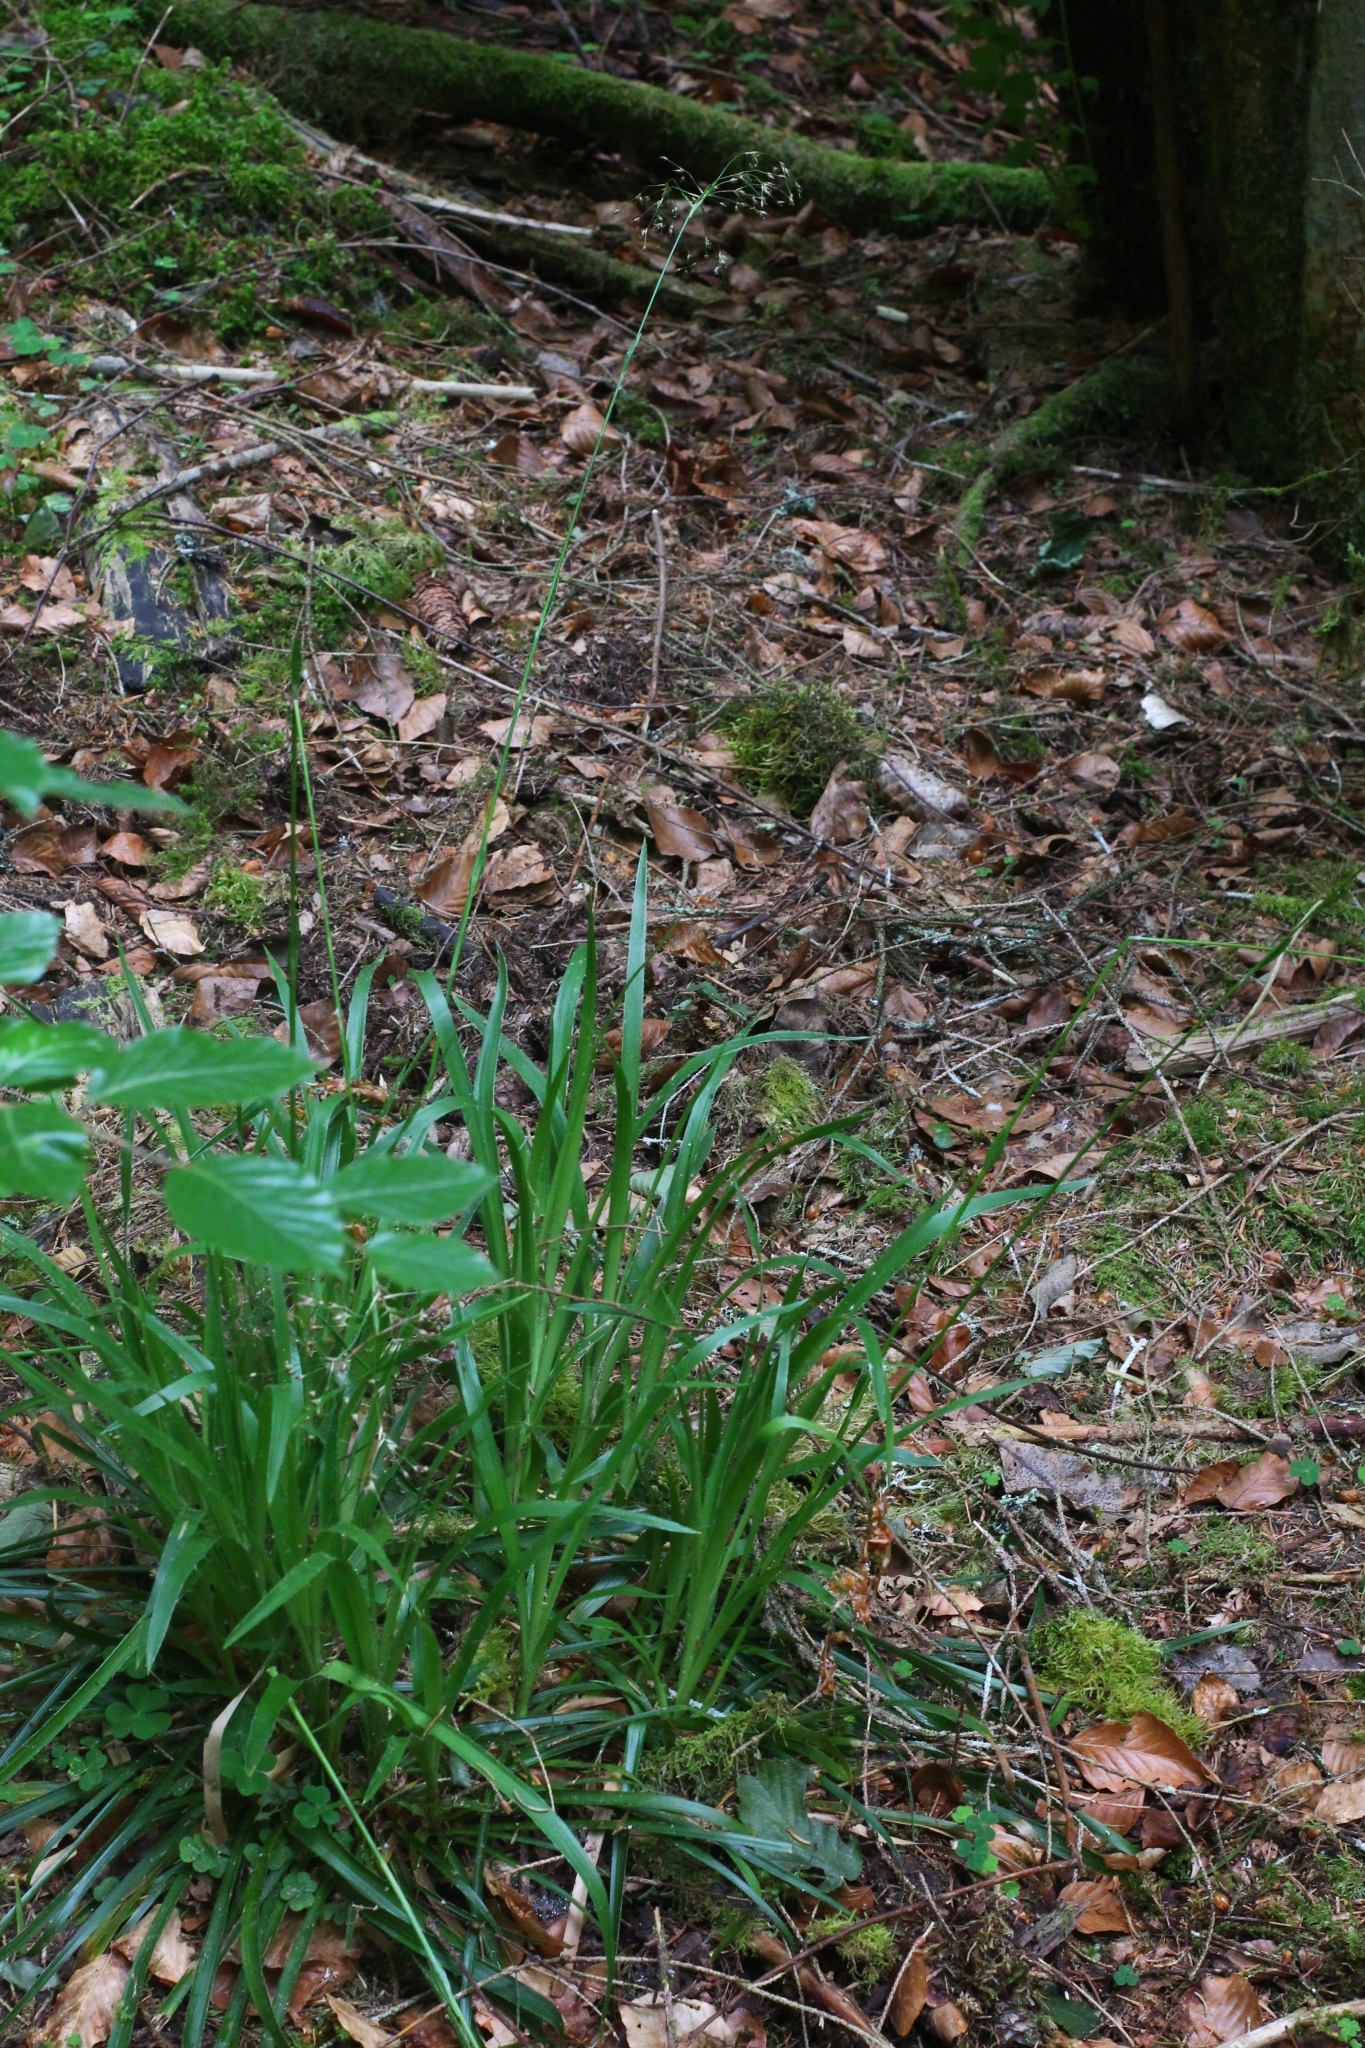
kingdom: Plantae
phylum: Tracheophyta
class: Liliopsida
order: Poales
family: Juncaceae
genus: Luzula
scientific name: Luzula sylvatica
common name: Great wood-rush
